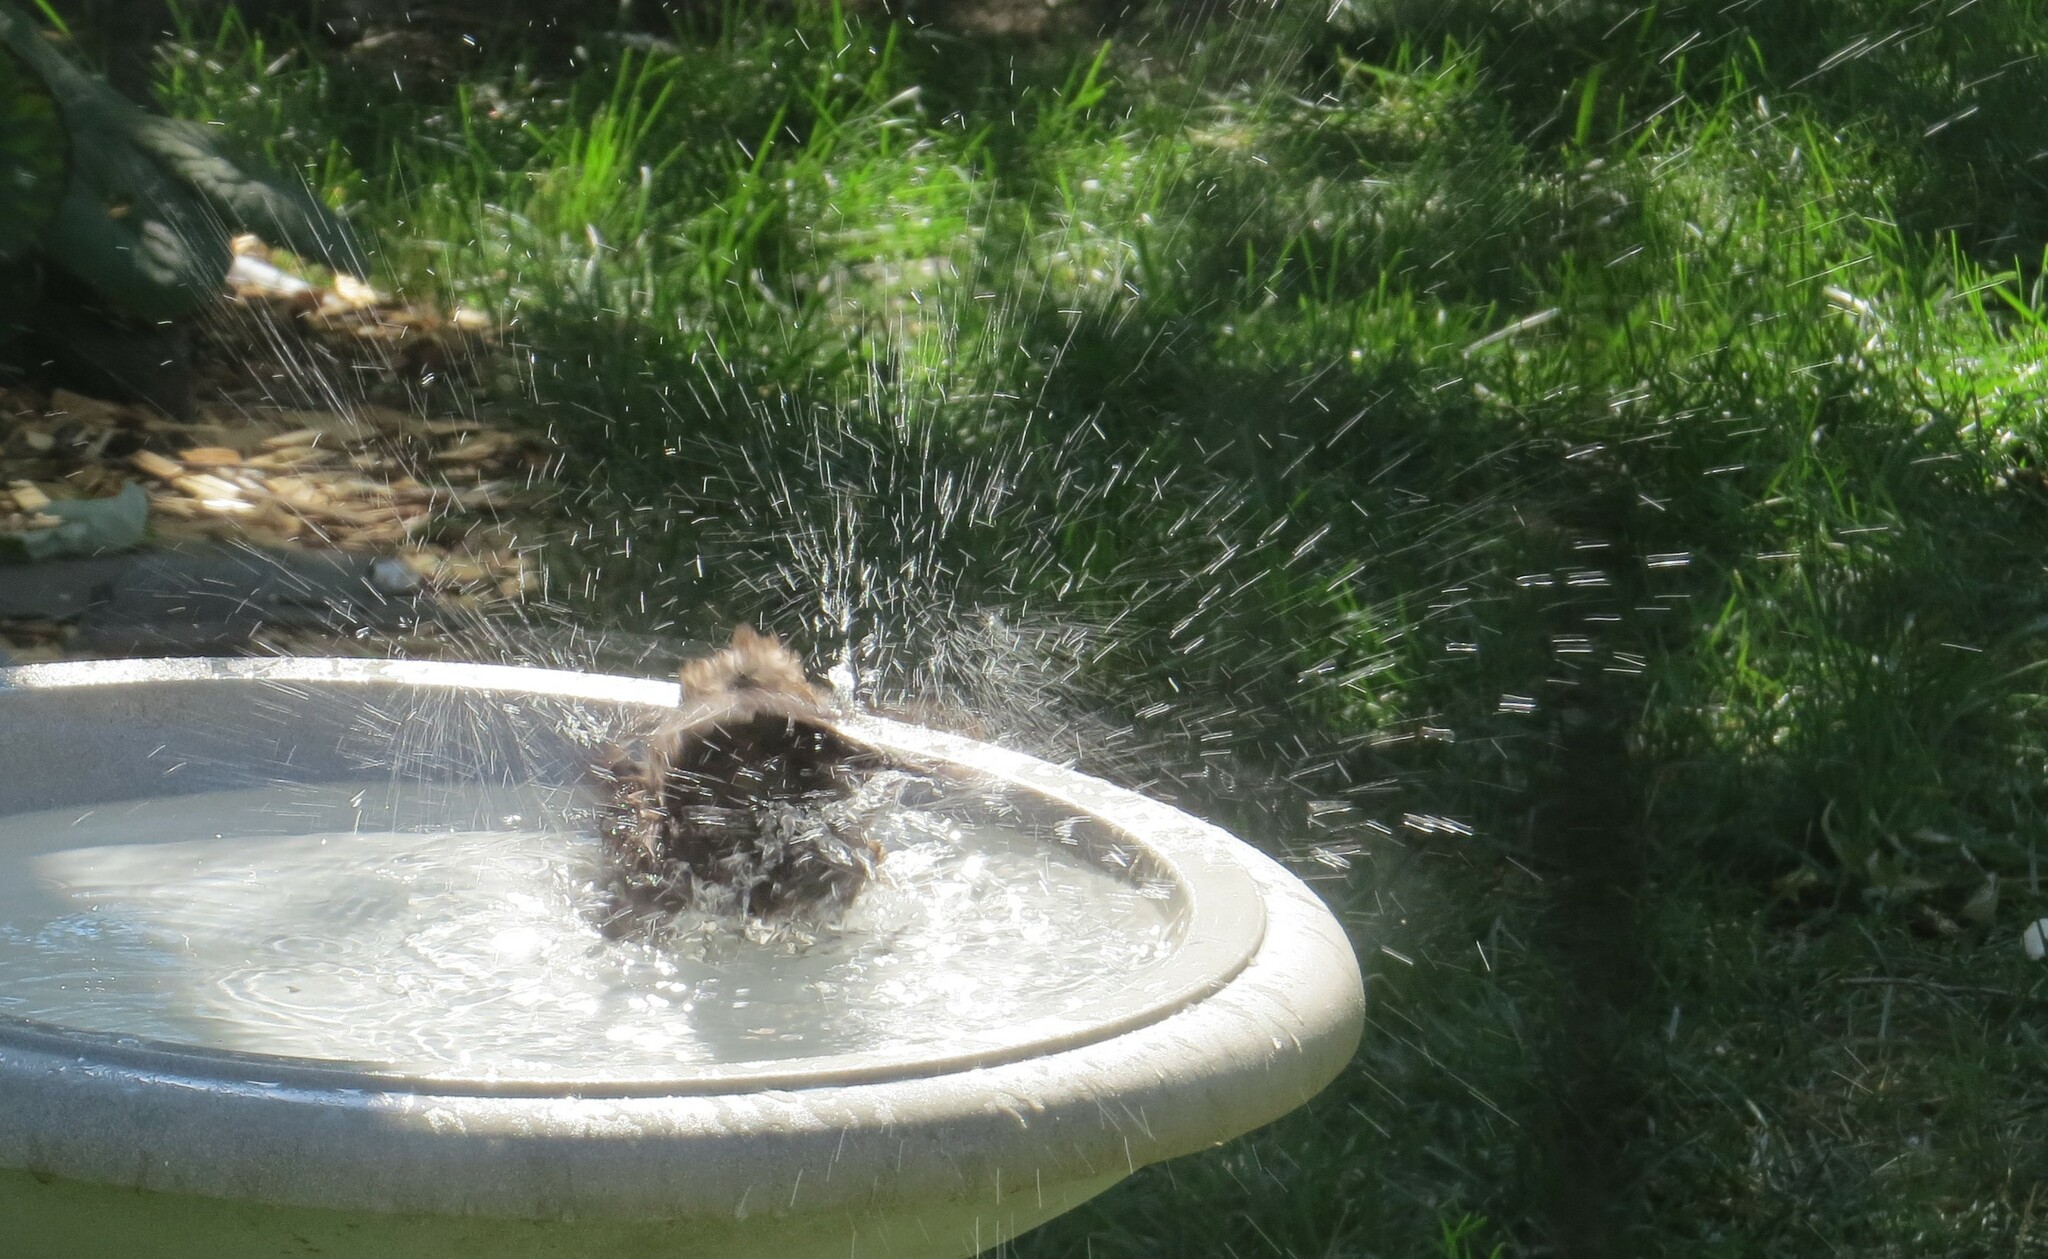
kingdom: Animalia
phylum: Chordata
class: Aves
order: Passeriformes
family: Icteridae
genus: Quiscalus
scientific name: Quiscalus quiscula
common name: Common grackle
